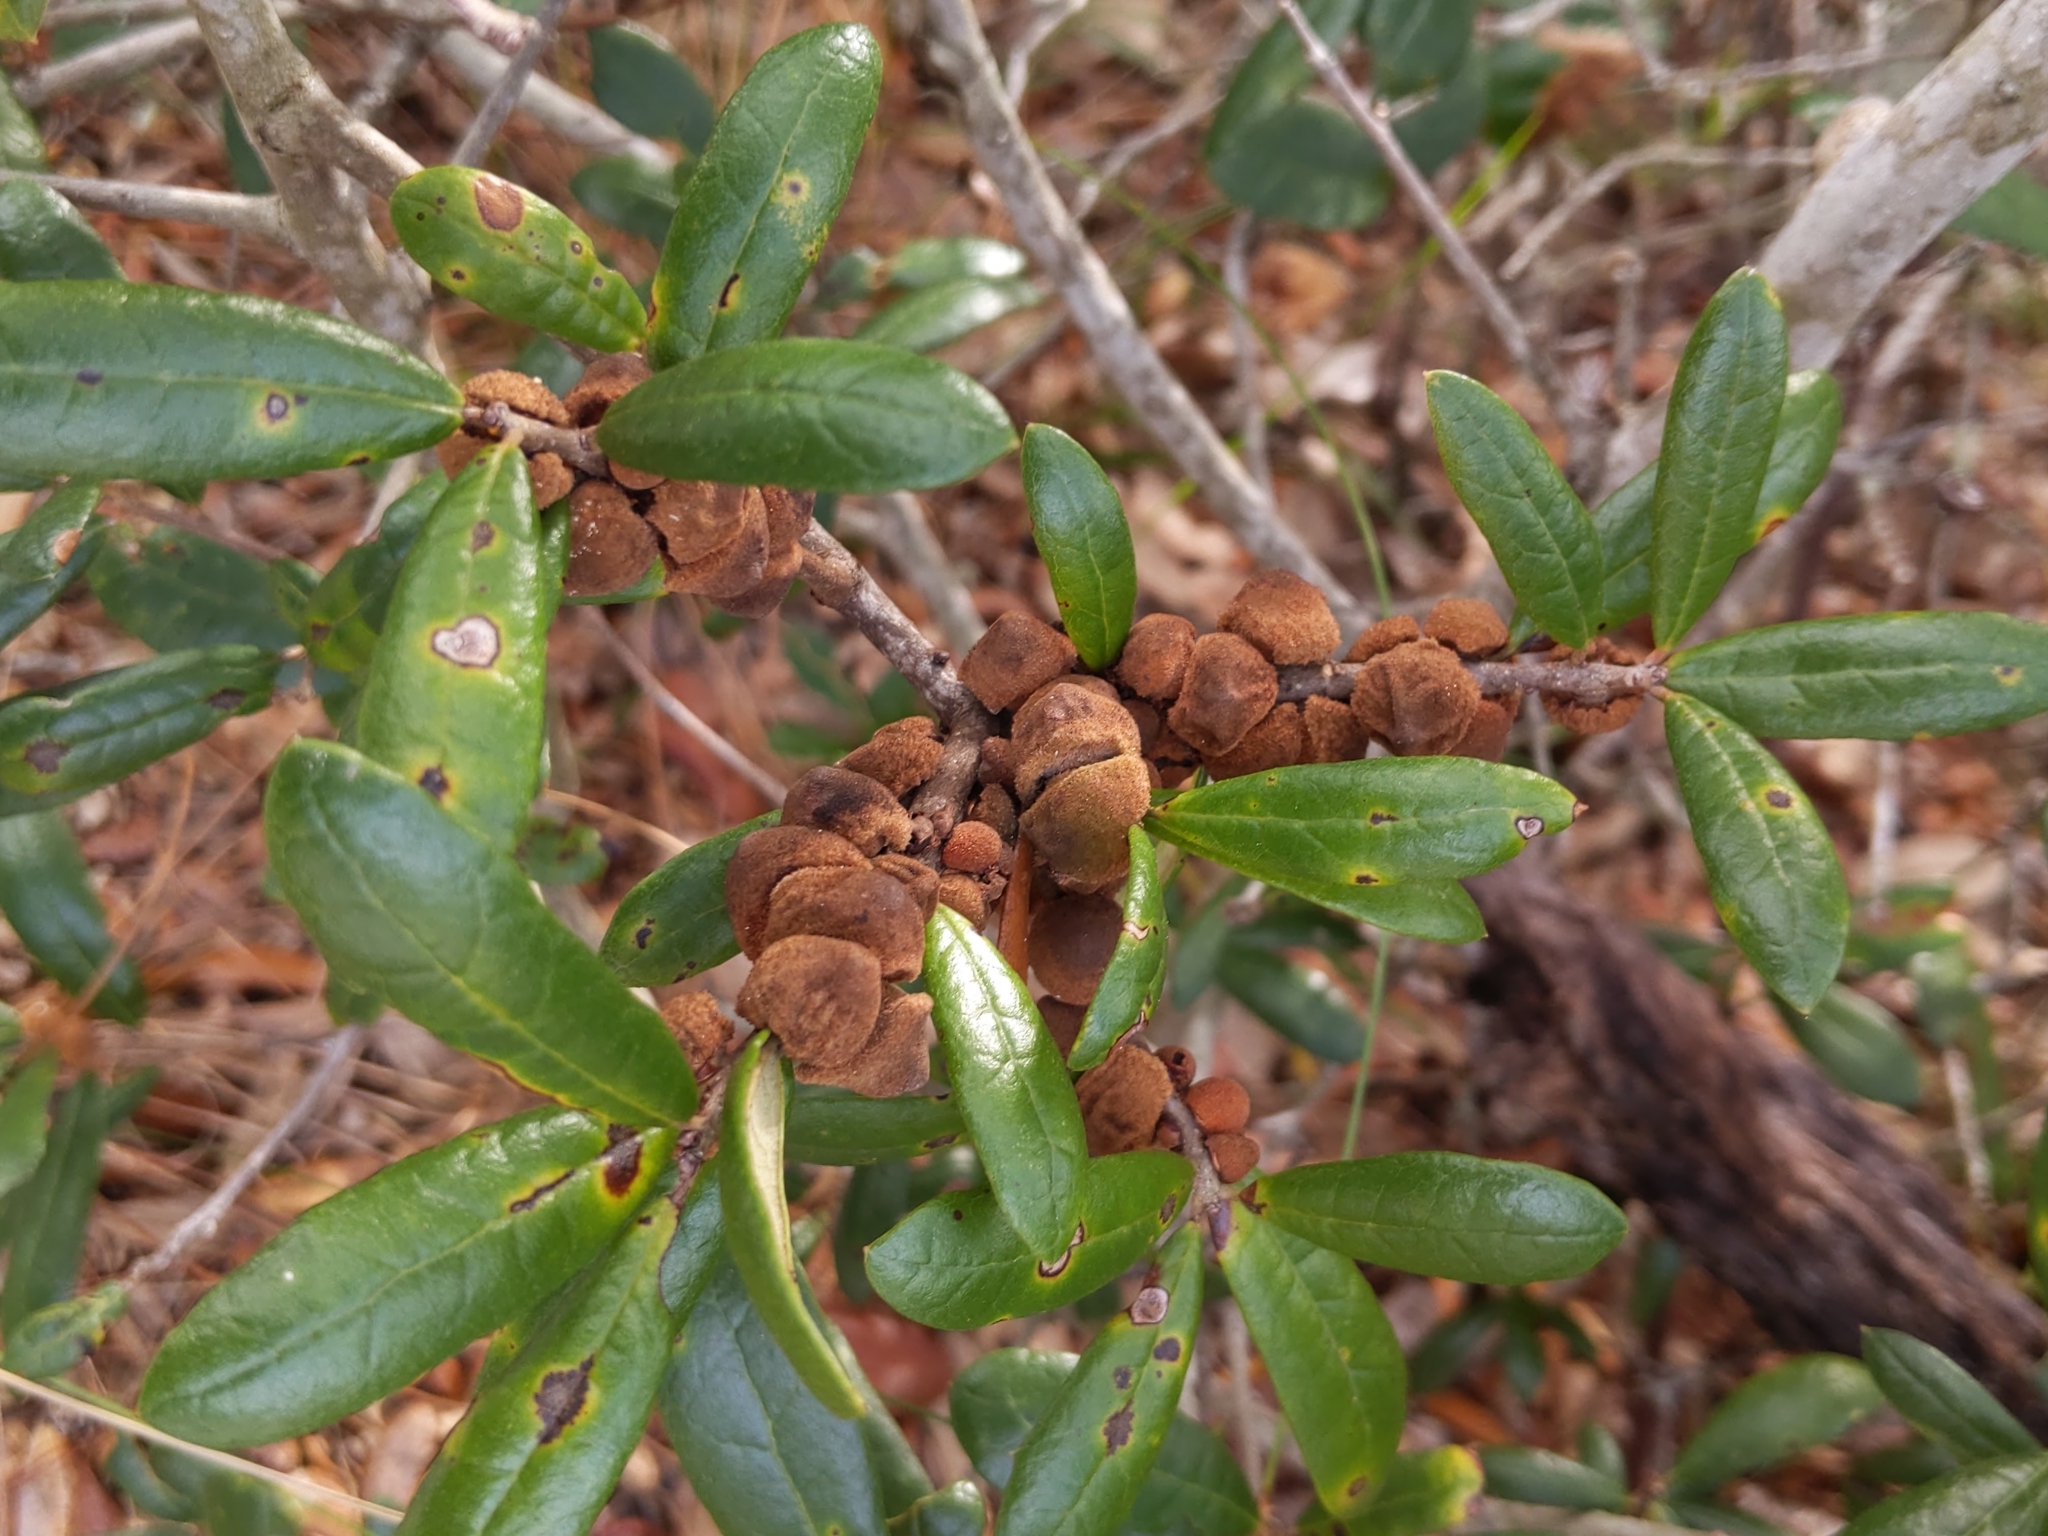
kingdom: Animalia
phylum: Arthropoda
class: Insecta
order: Hymenoptera
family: Cynipidae
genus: Disholcaspis
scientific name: Disholcaspis
